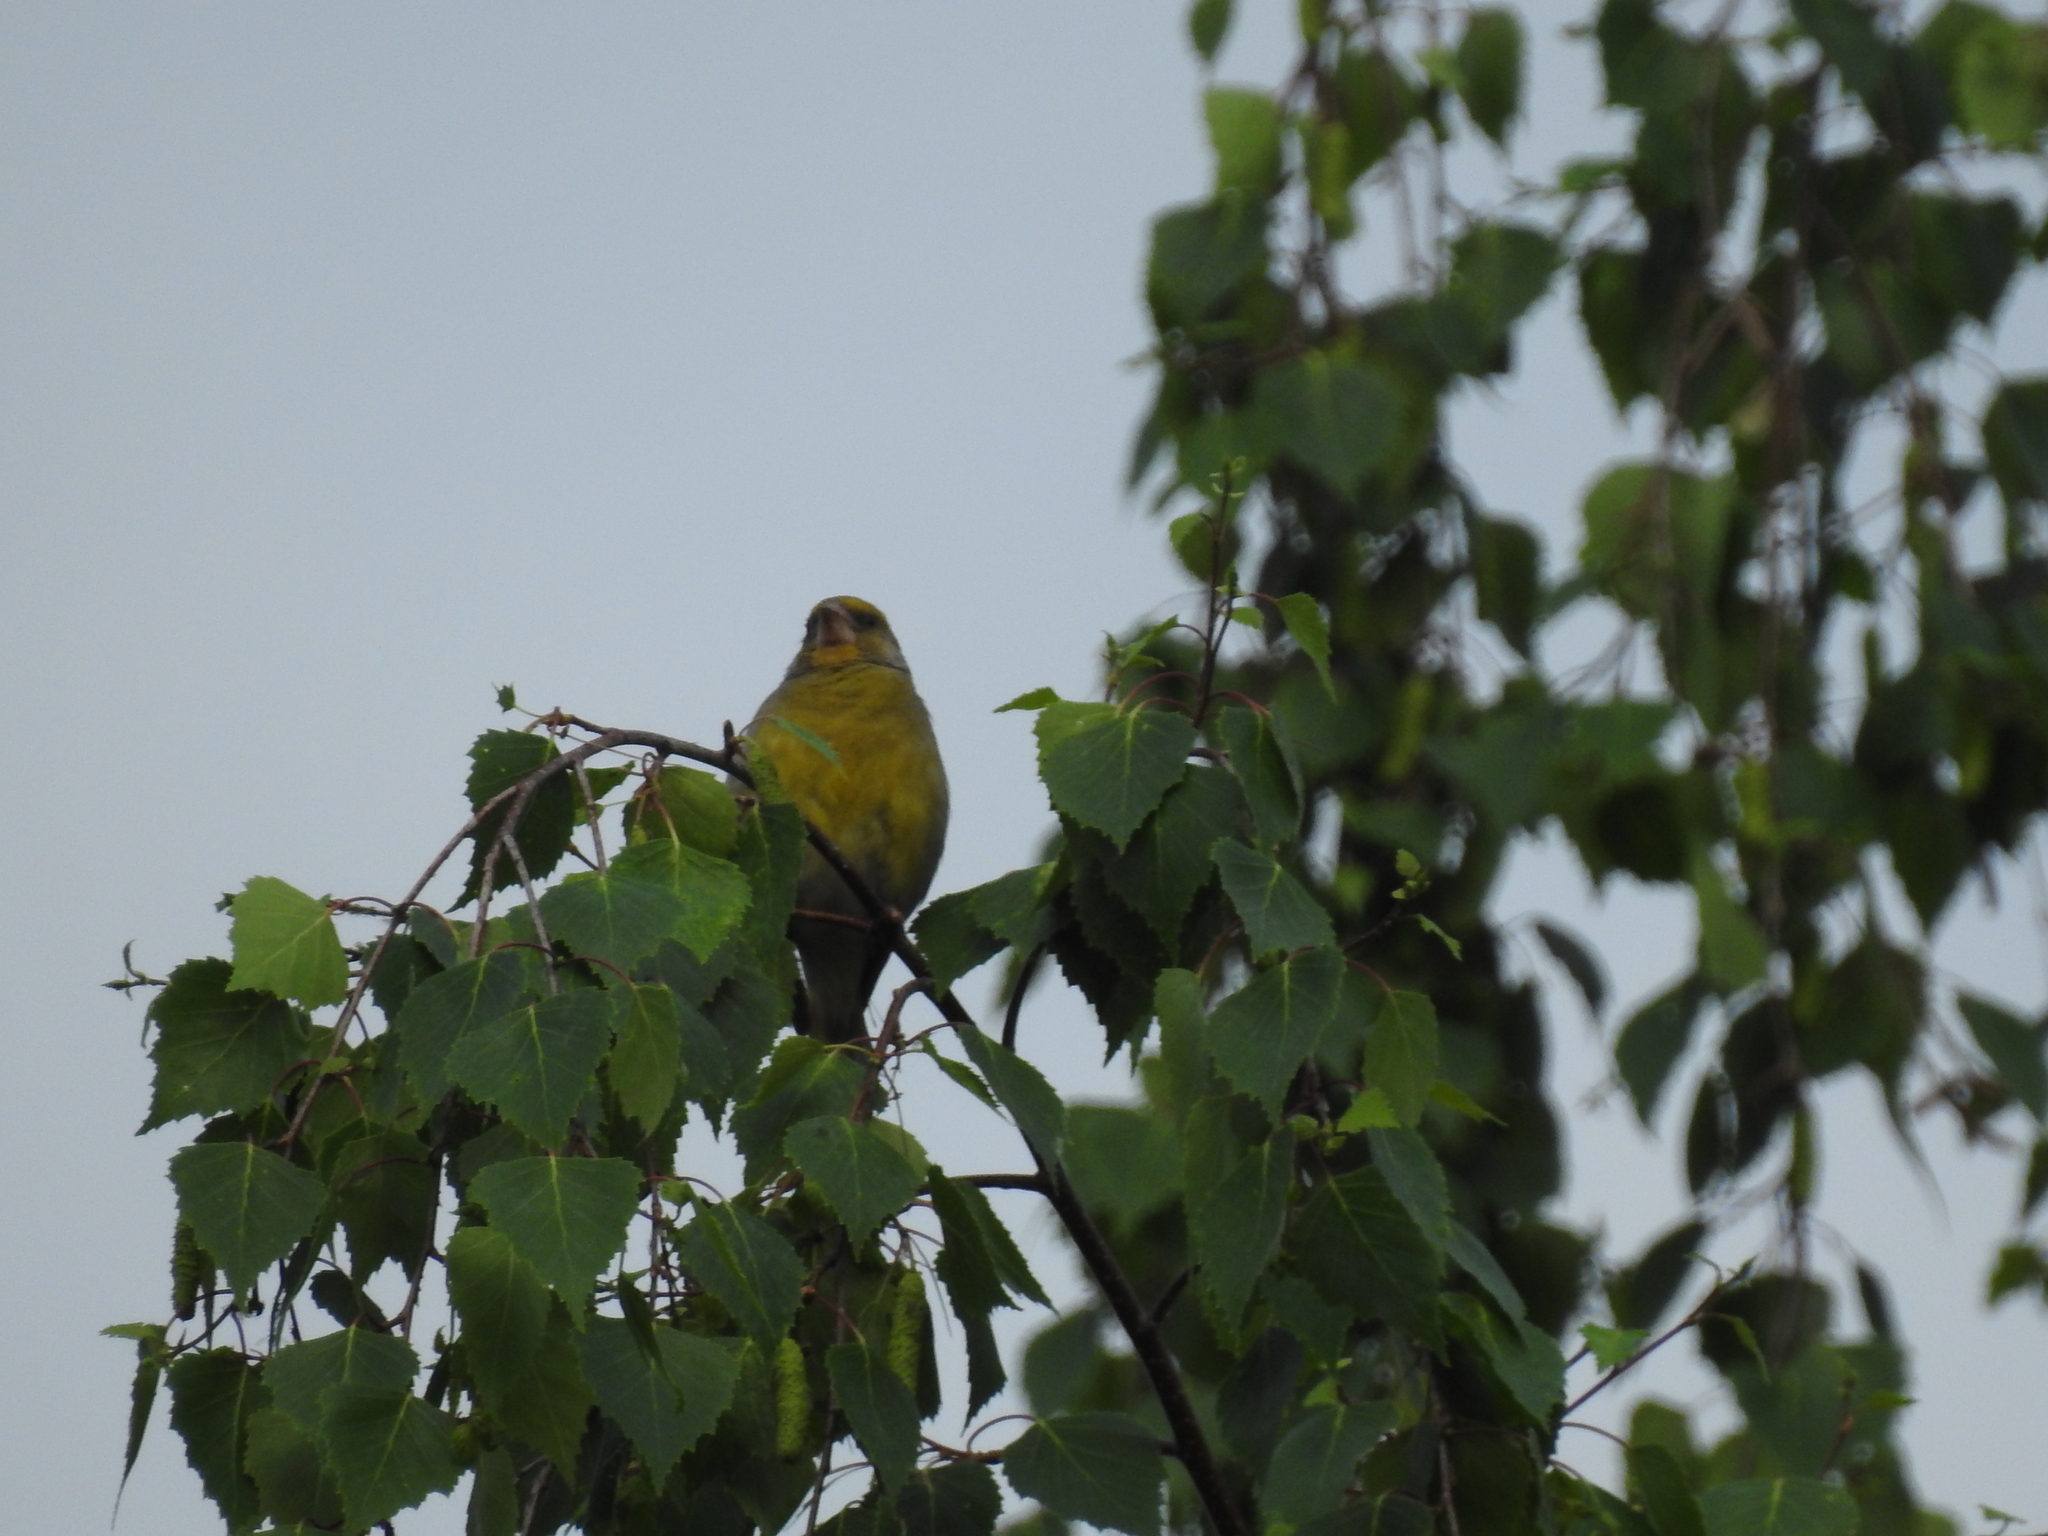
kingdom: Plantae
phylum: Tracheophyta
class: Liliopsida
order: Poales
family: Poaceae
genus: Chloris
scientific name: Chloris chloris
